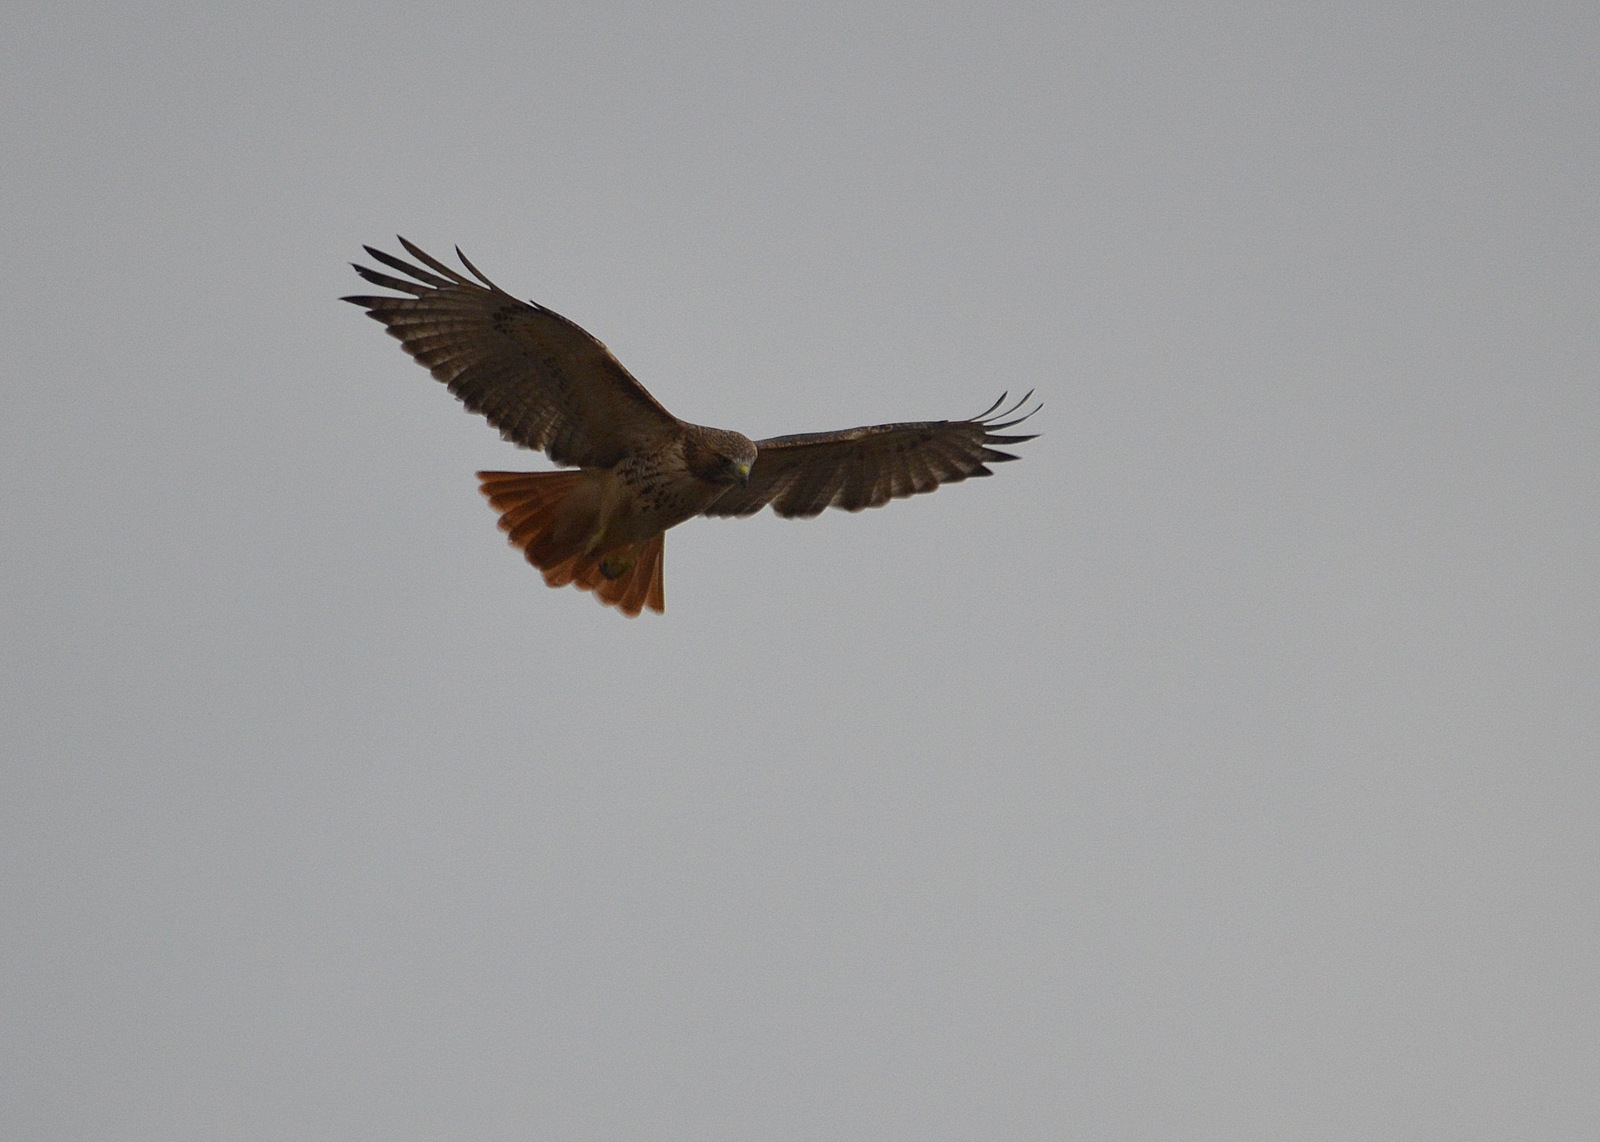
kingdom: Animalia
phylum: Chordata
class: Aves
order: Accipitriformes
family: Accipitridae
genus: Buteo
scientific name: Buteo jamaicensis
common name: Red-tailed hawk
